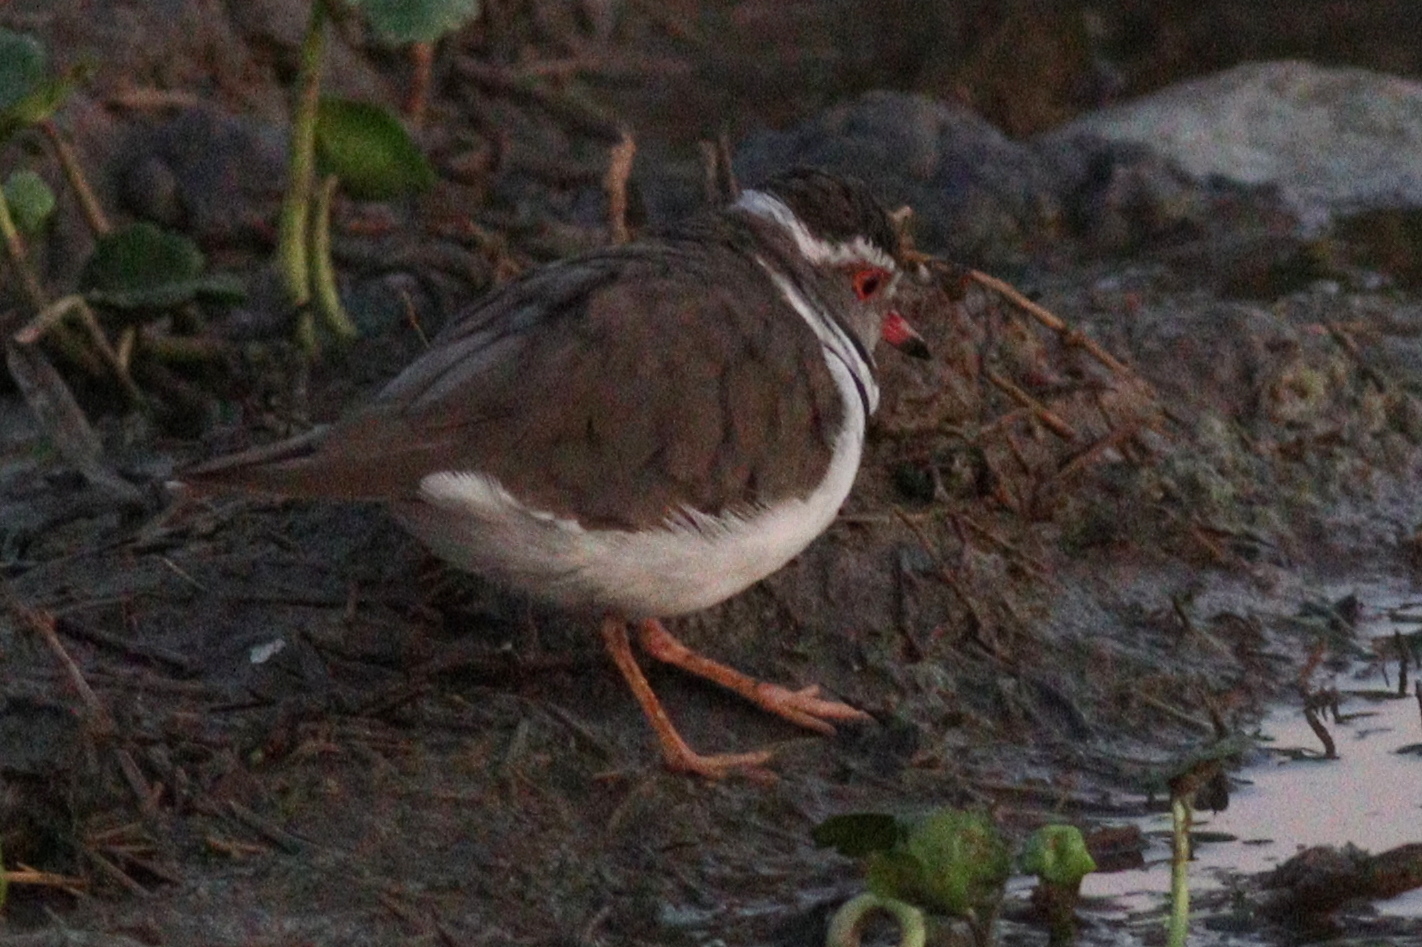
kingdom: Animalia
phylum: Chordata
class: Aves
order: Charadriiformes
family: Charadriidae
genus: Charadrius
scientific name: Charadrius tricollaris
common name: Three-banded plover
